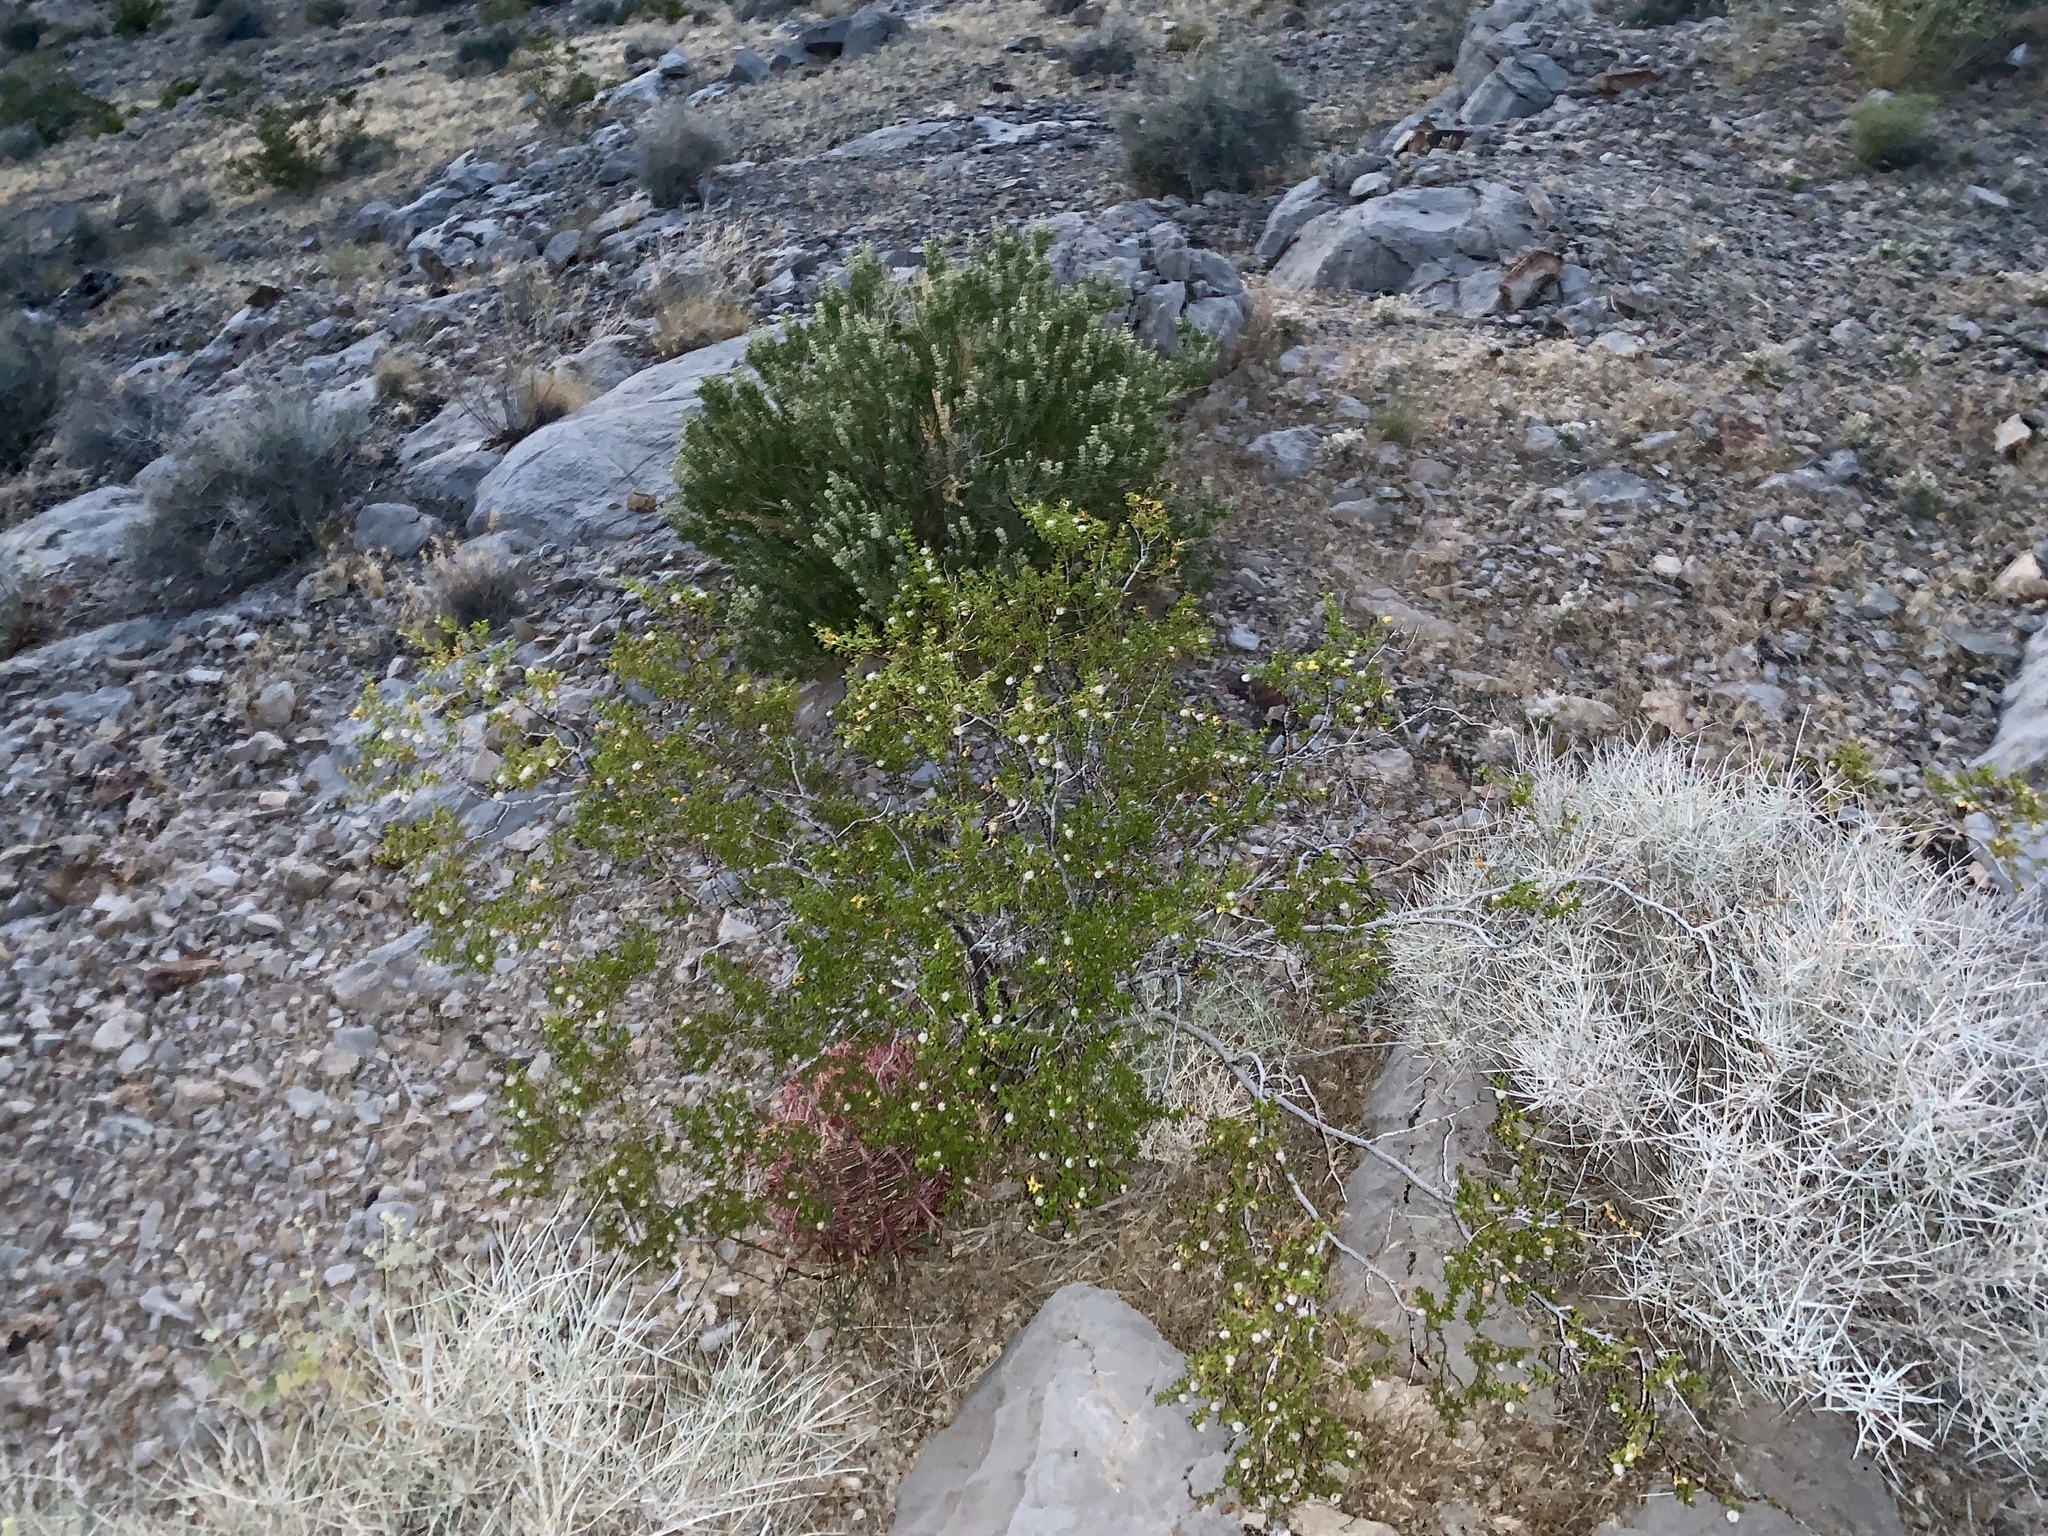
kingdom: Plantae
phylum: Tracheophyta
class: Magnoliopsida
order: Zygophyllales
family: Zygophyllaceae
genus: Larrea
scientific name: Larrea tridentata
